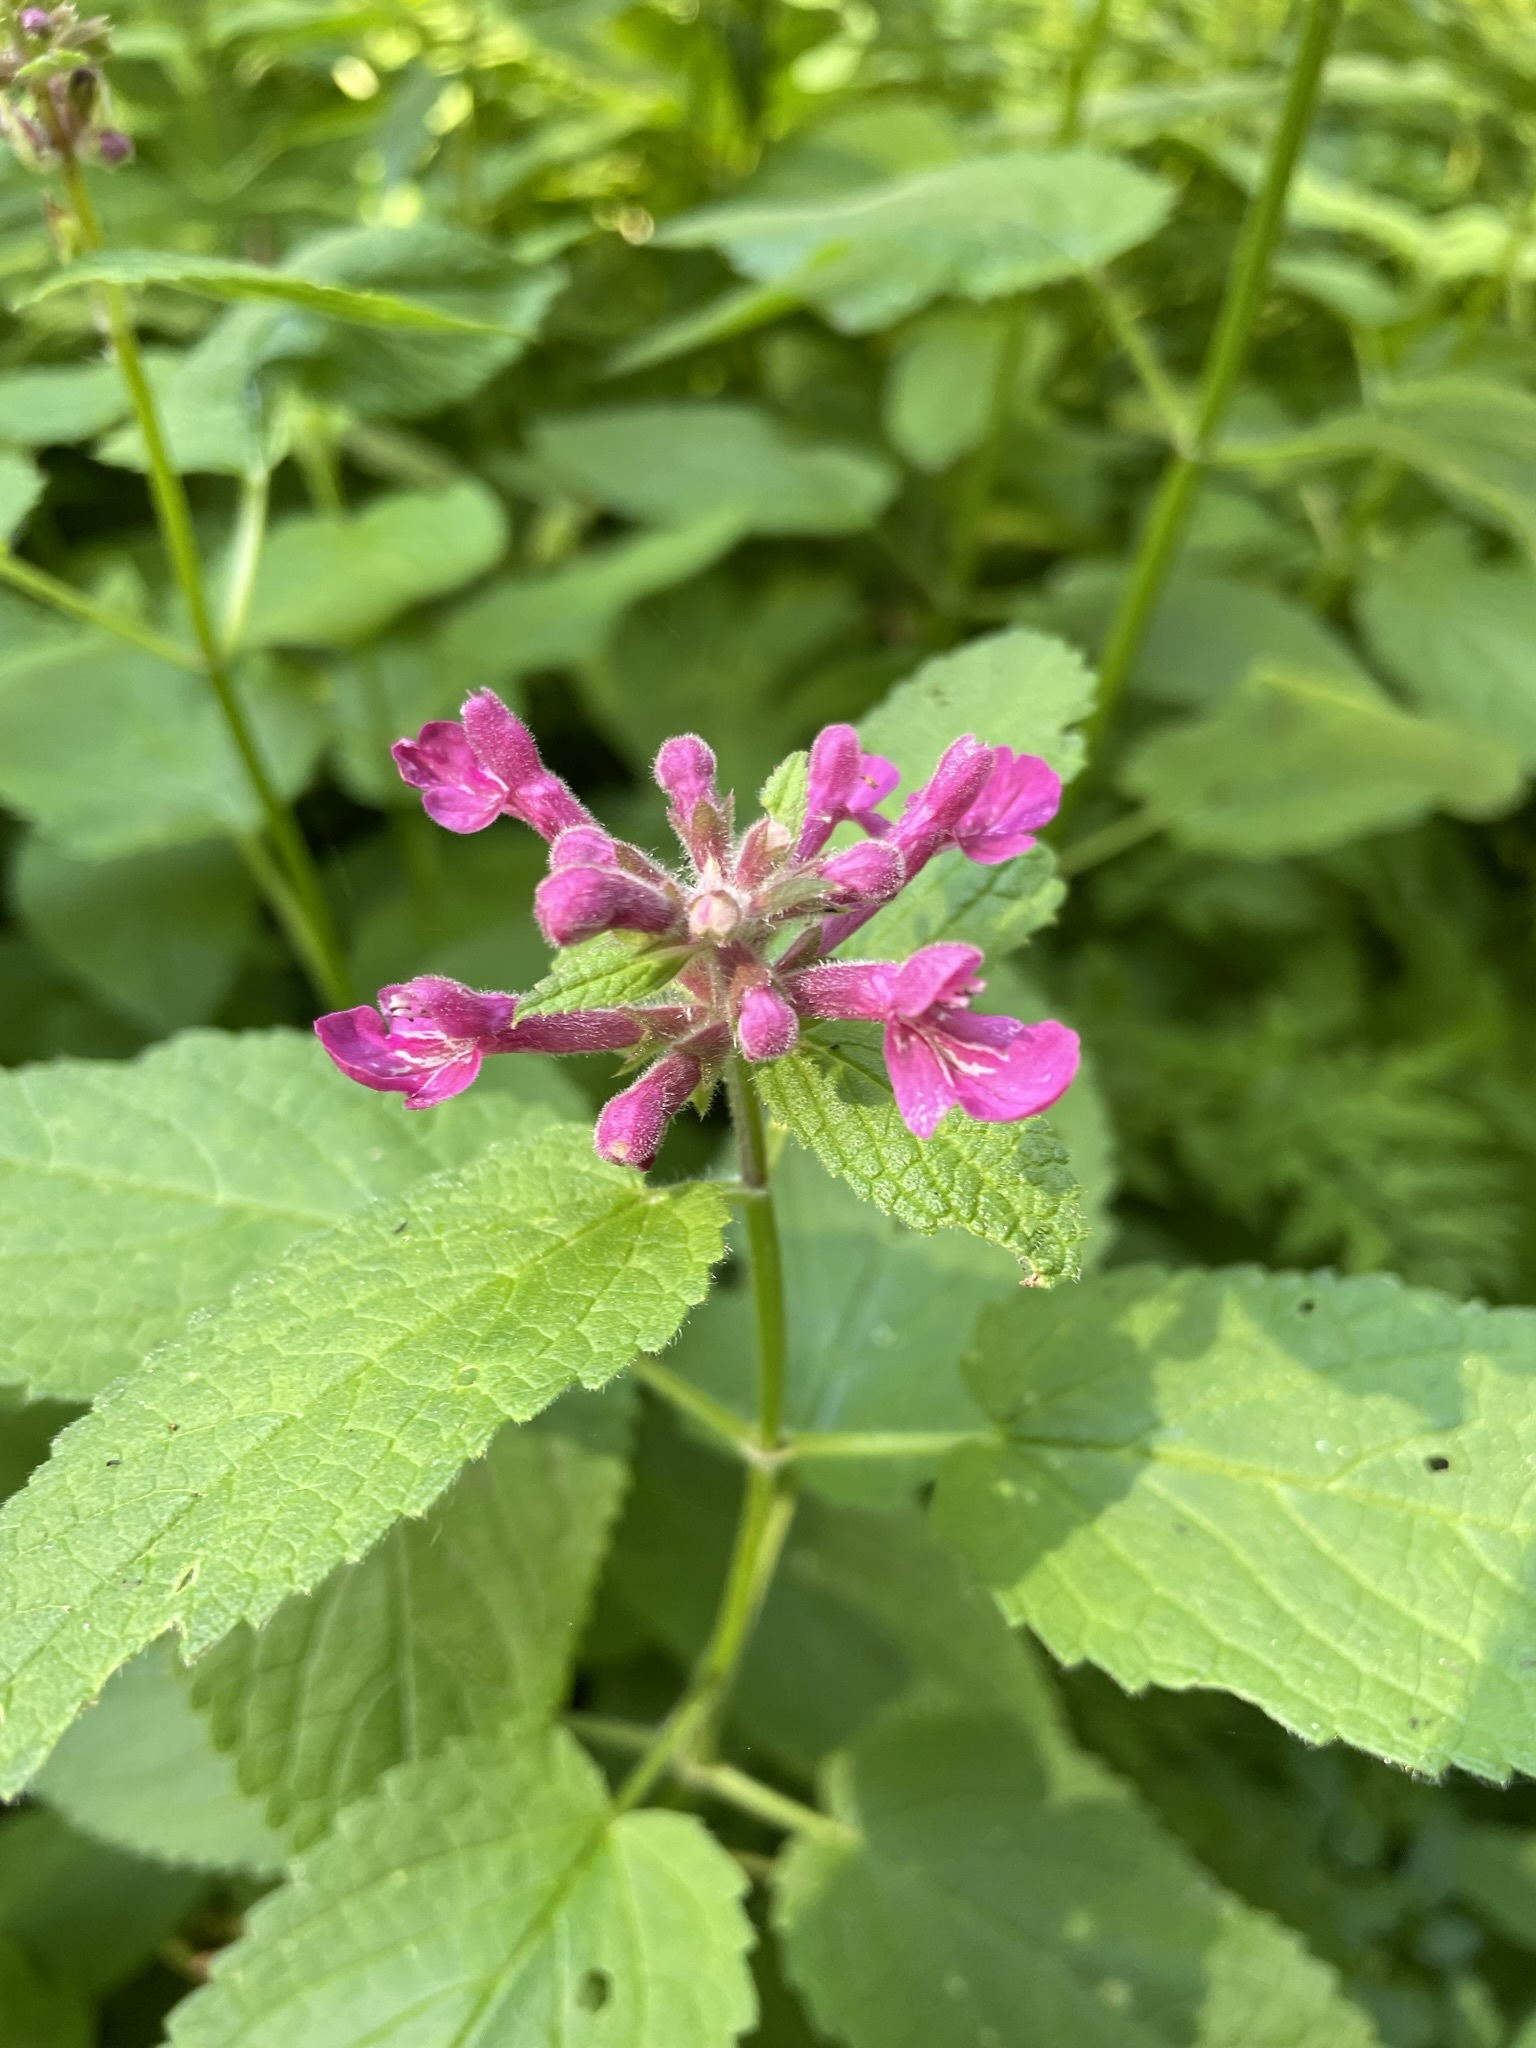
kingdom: Plantae
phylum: Tracheophyta
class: Magnoliopsida
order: Lamiales
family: Lamiaceae
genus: Stachys
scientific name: Stachys chamissonis
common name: Coastal hedge-nettle
